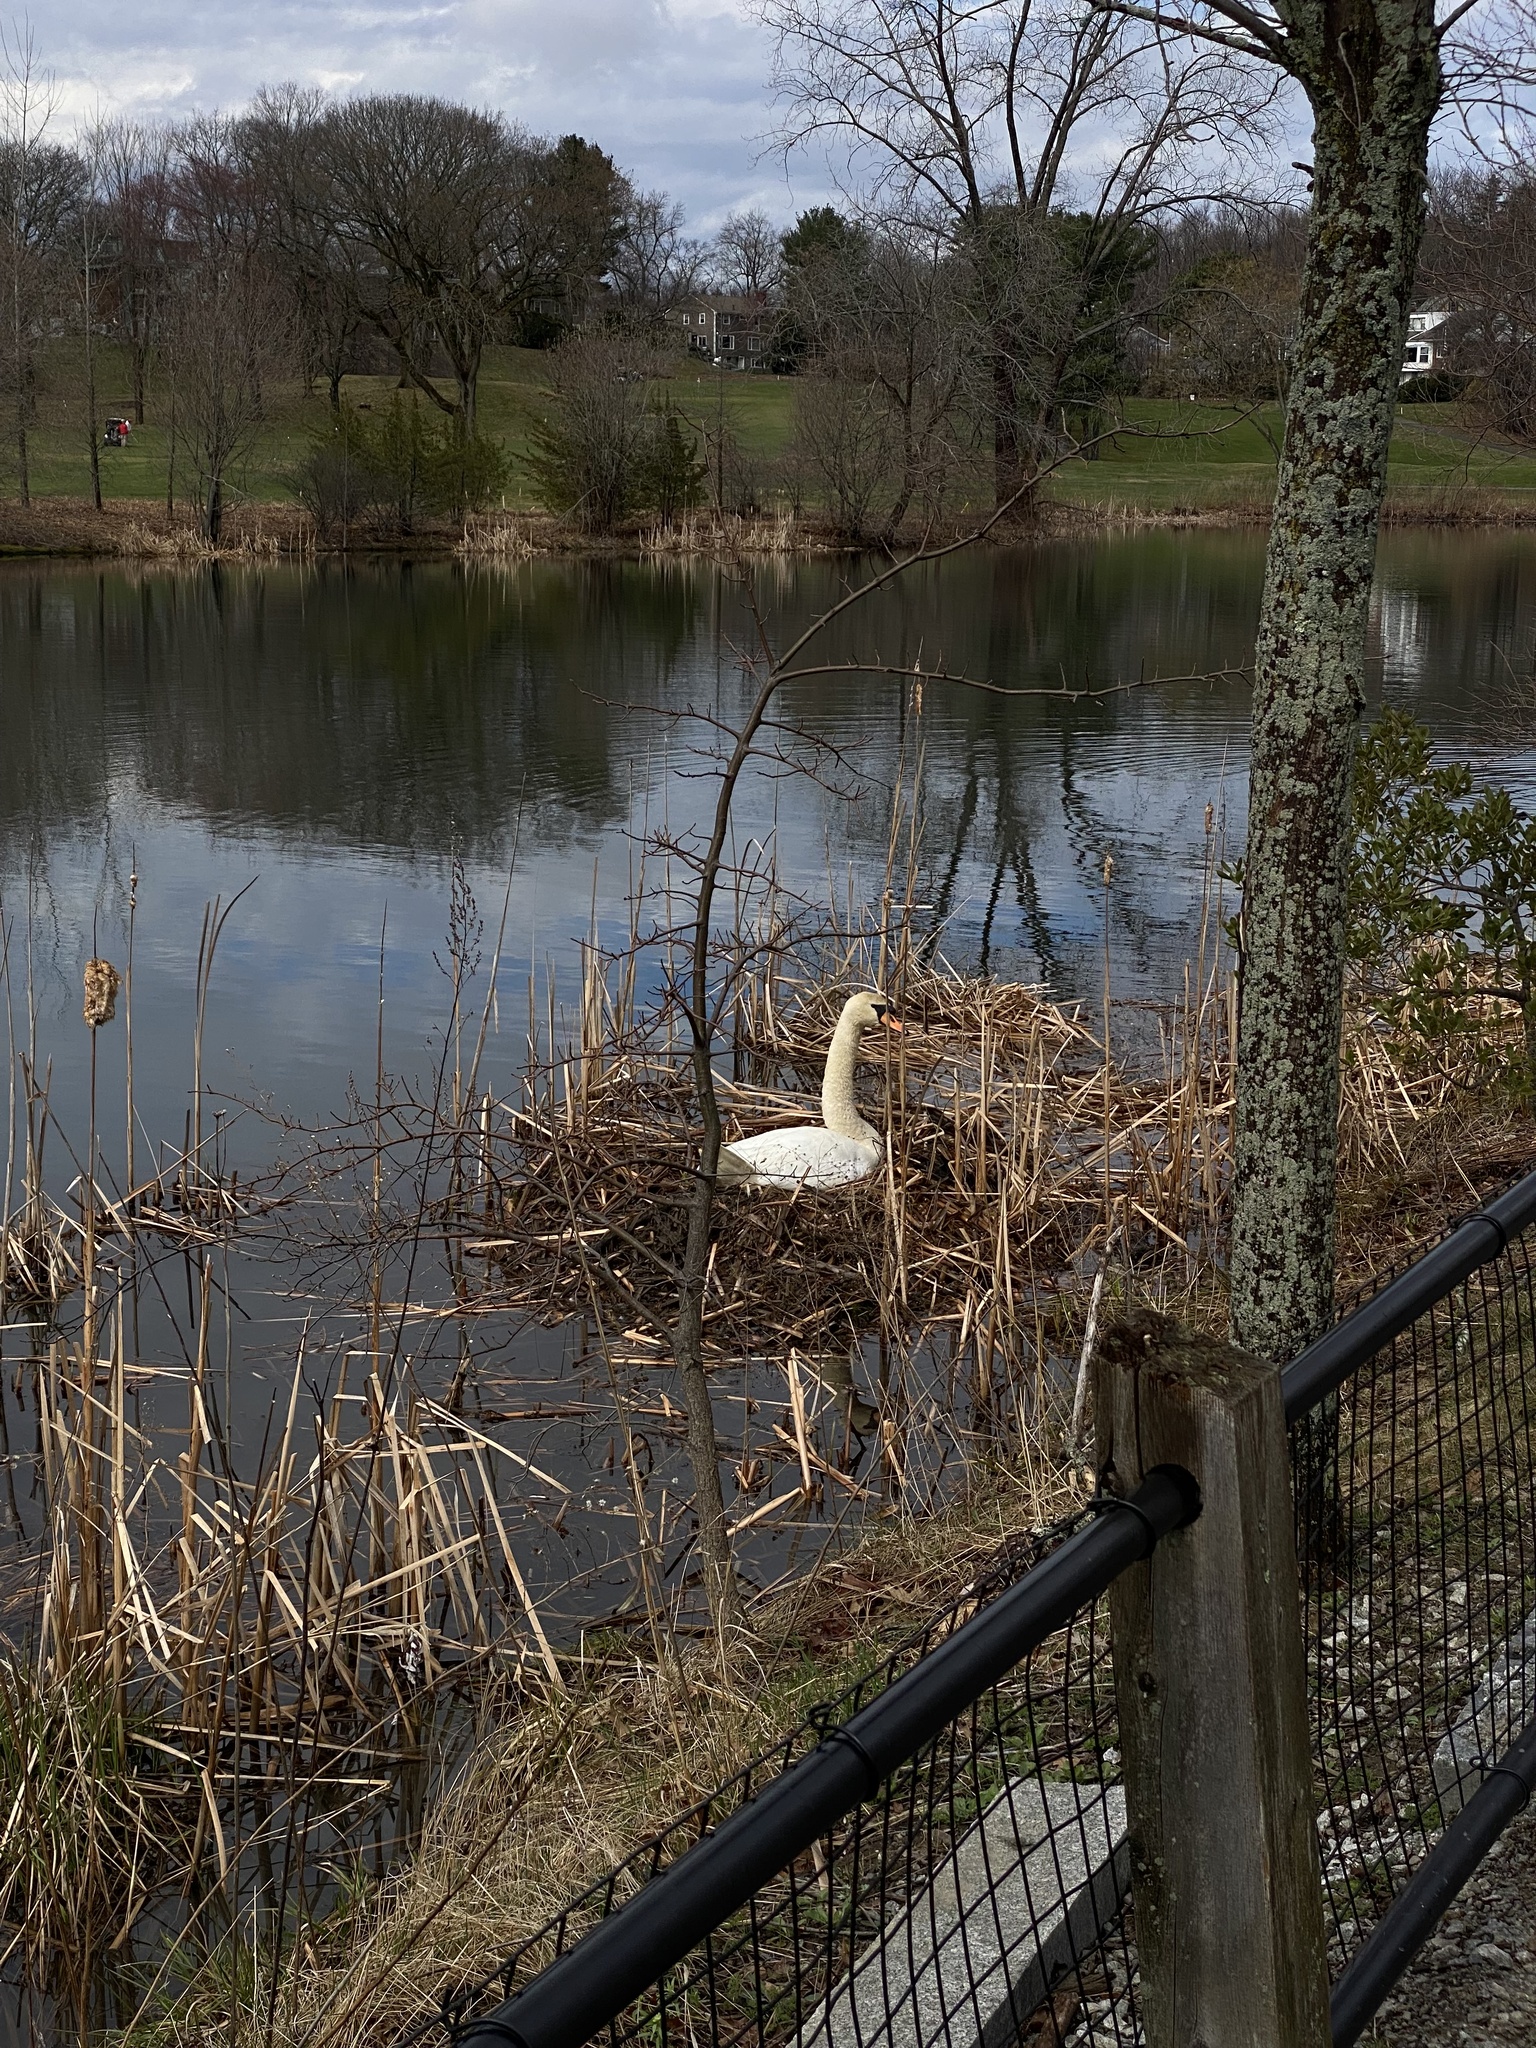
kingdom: Animalia
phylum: Chordata
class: Aves
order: Anseriformes
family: Anatidae
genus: Cygnus
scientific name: Cygnus olor
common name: Mute swan
